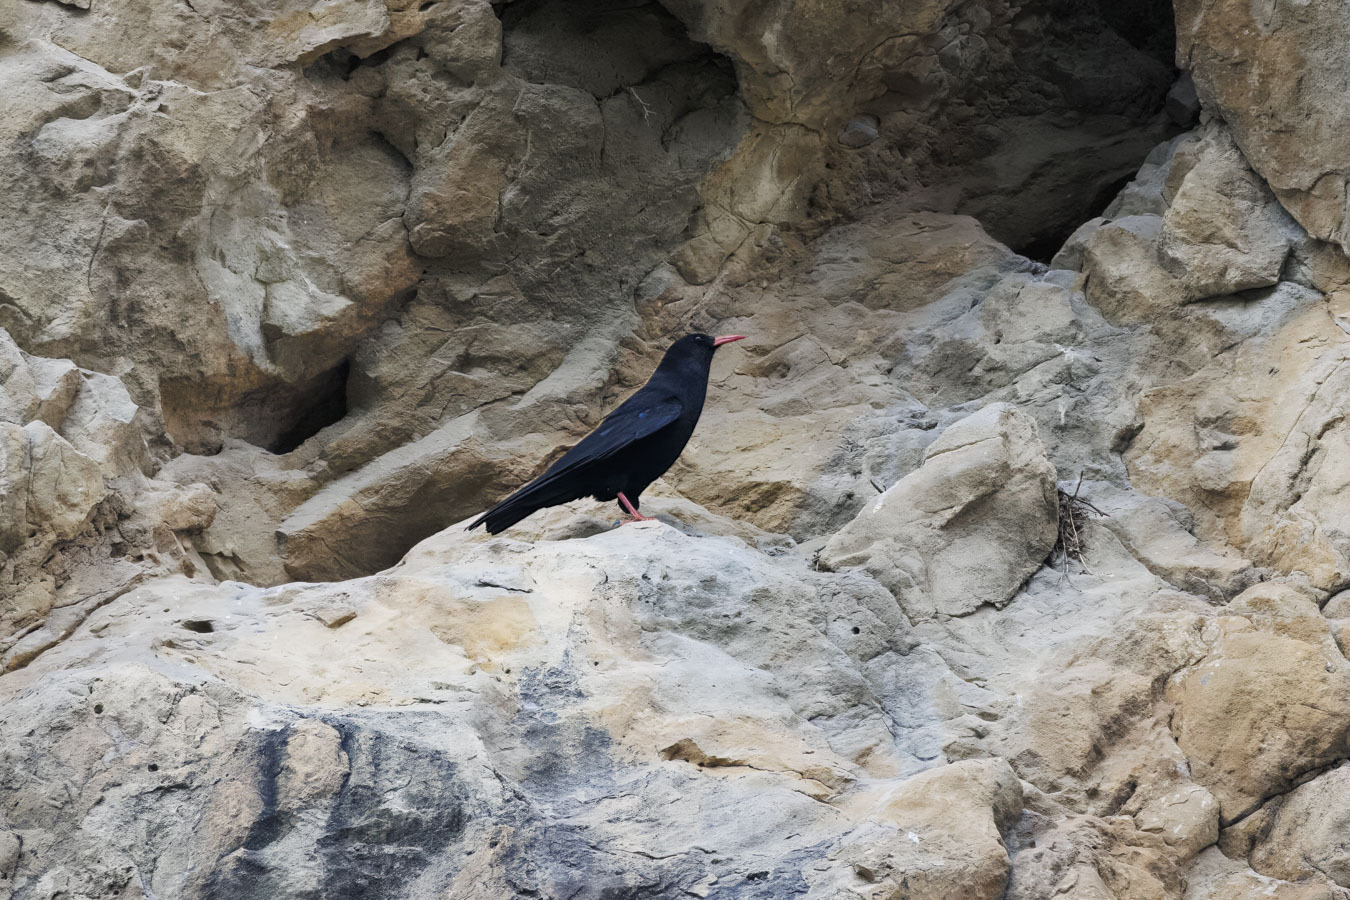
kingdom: Animalia
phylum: Chordata
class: Aves
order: Passeriformes
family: Corvidae
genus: Pyrrhocorax
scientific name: Pyrrhocorax pyrrhocorax
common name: Red-billed chough
